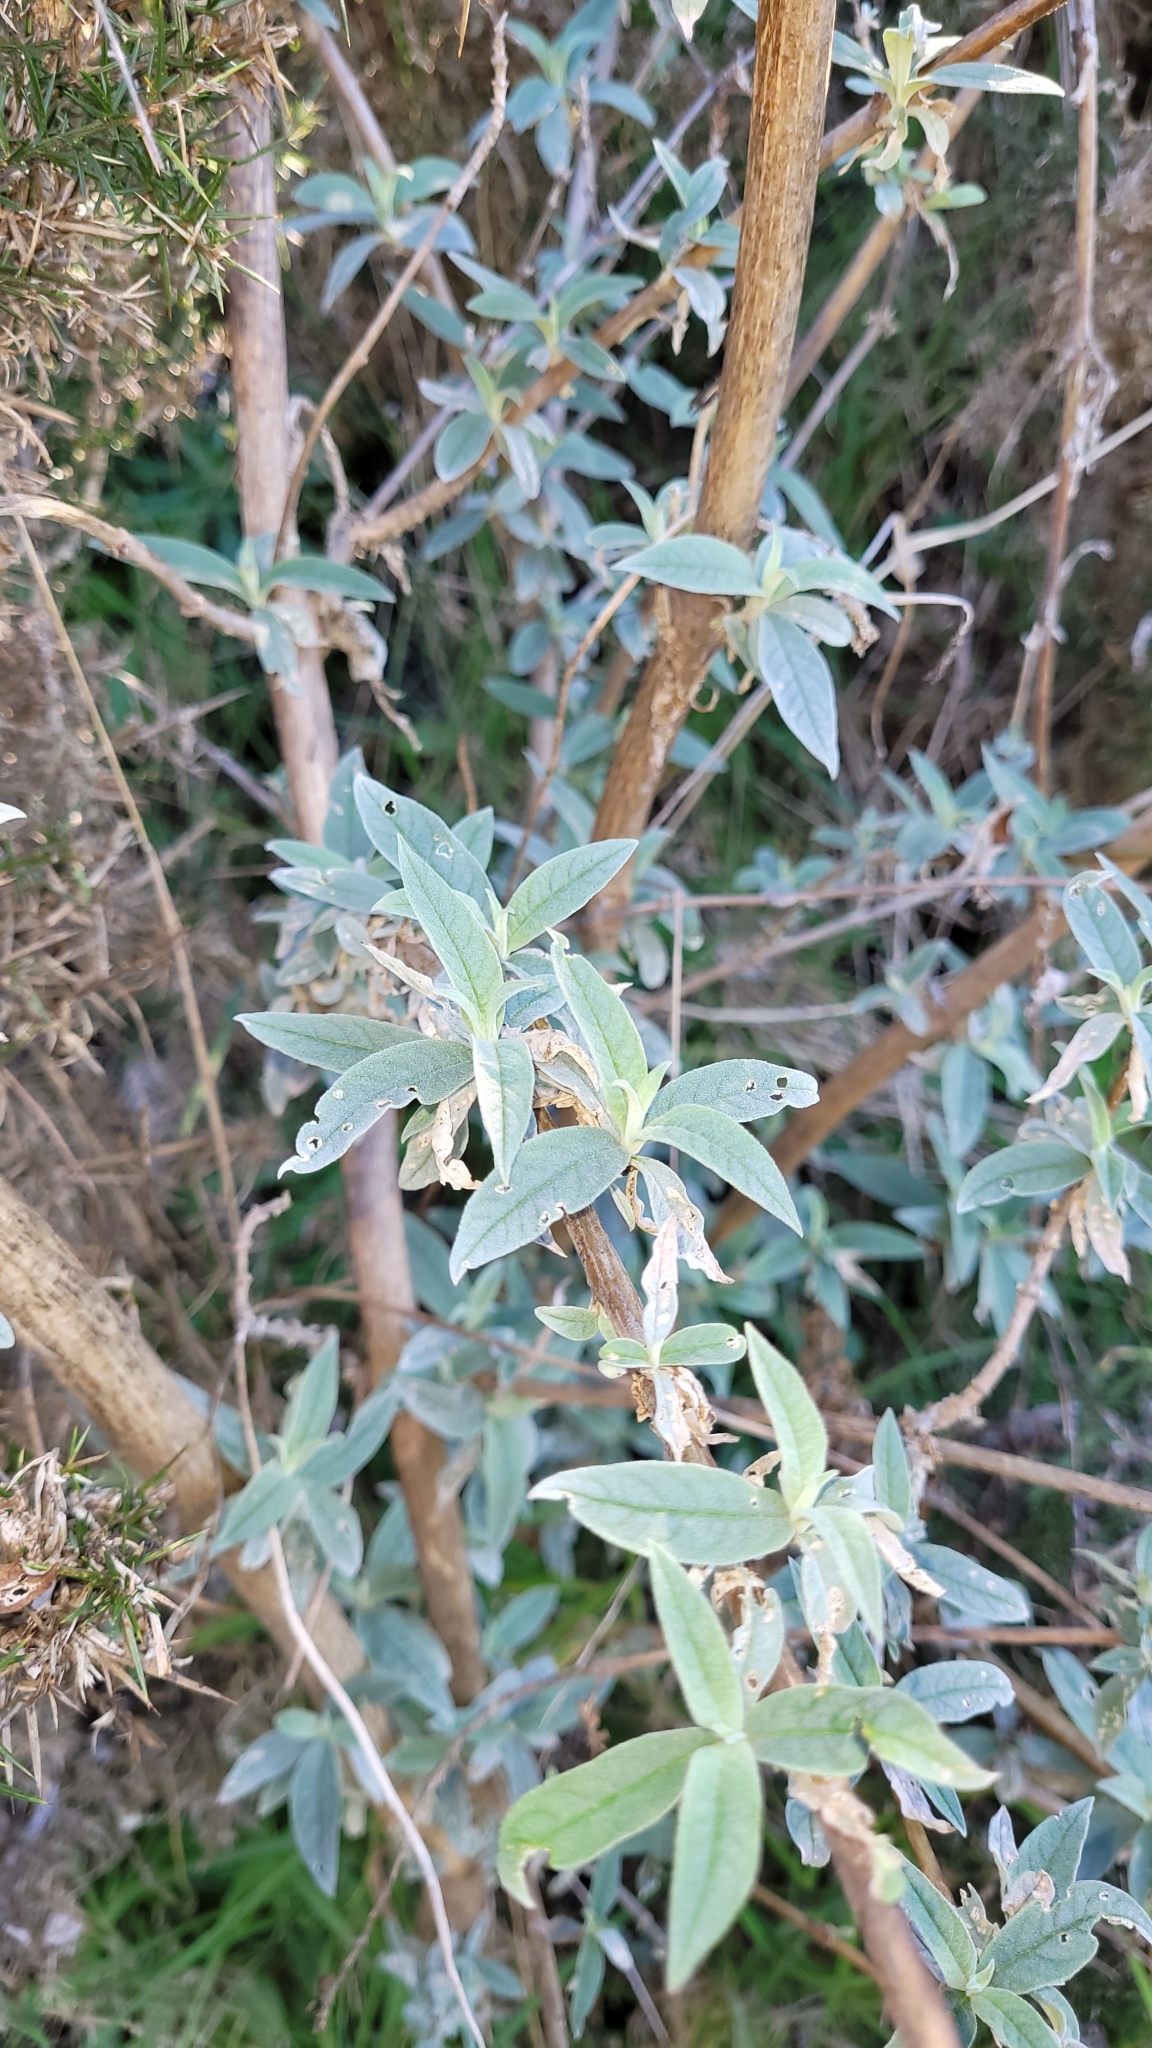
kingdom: Plantae
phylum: Tracheophyta
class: Magnoliopsida
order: Lamiales
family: Scrophulariaceae
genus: Buddleja
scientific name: Buddleja davidii
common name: Butterfly-bush
